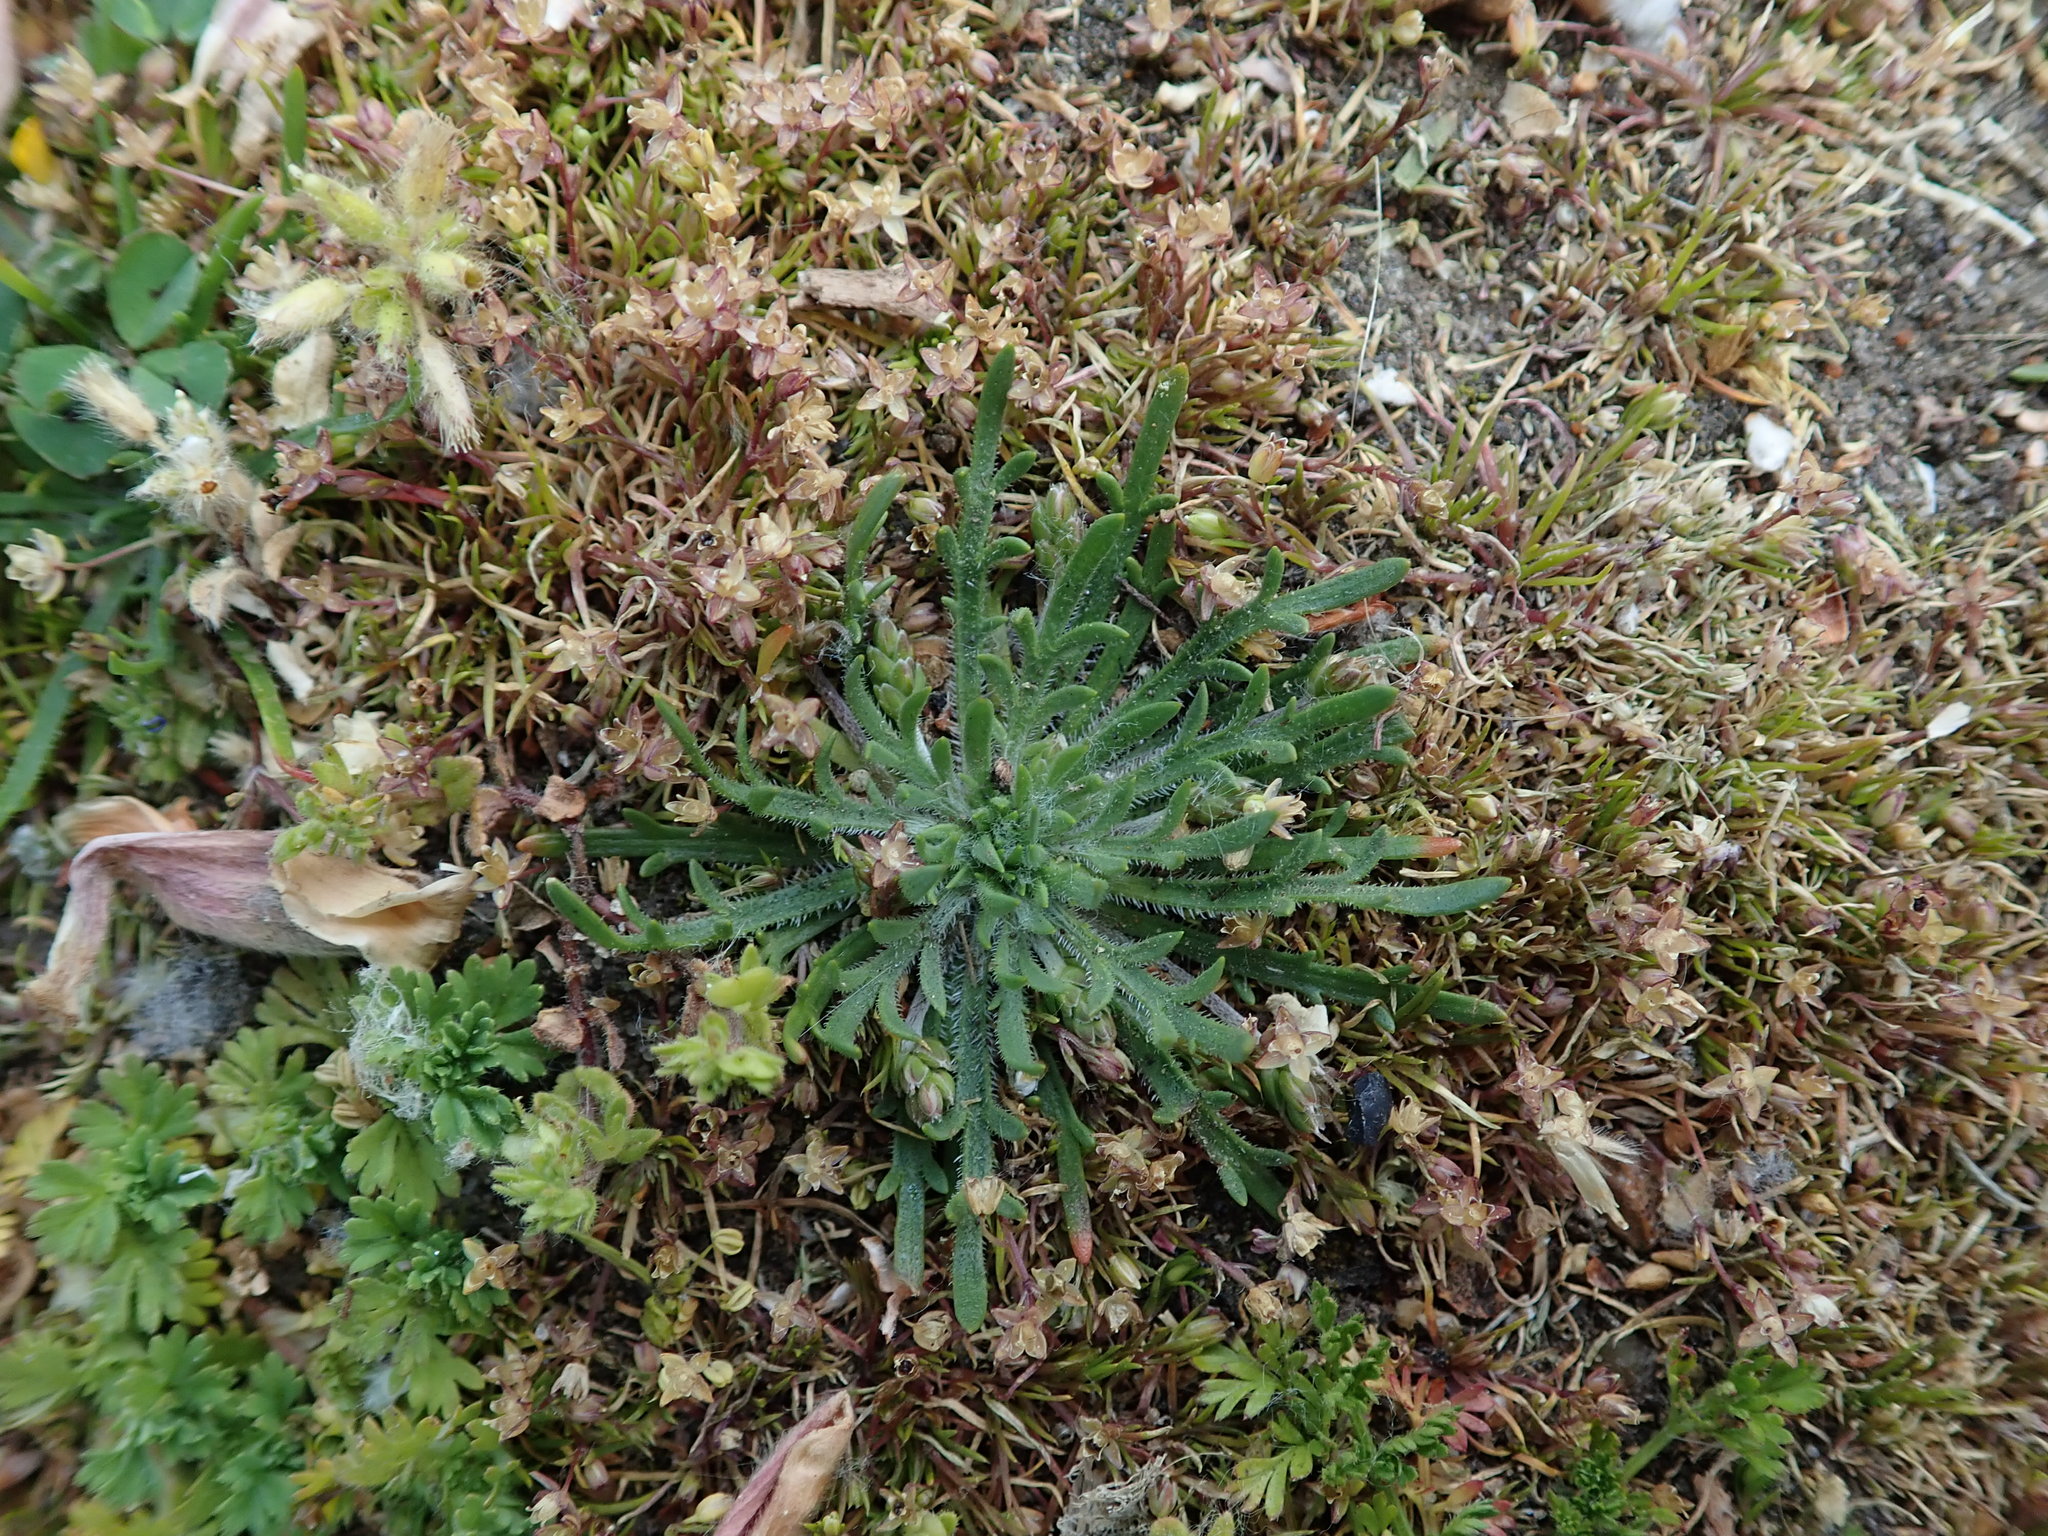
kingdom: Plantae
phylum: Tracheophyta
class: Magnoliopsida
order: Lamiales
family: Plantaginaceae
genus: Plantago
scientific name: Plantago coronopus
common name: Buck's-horn plantain
